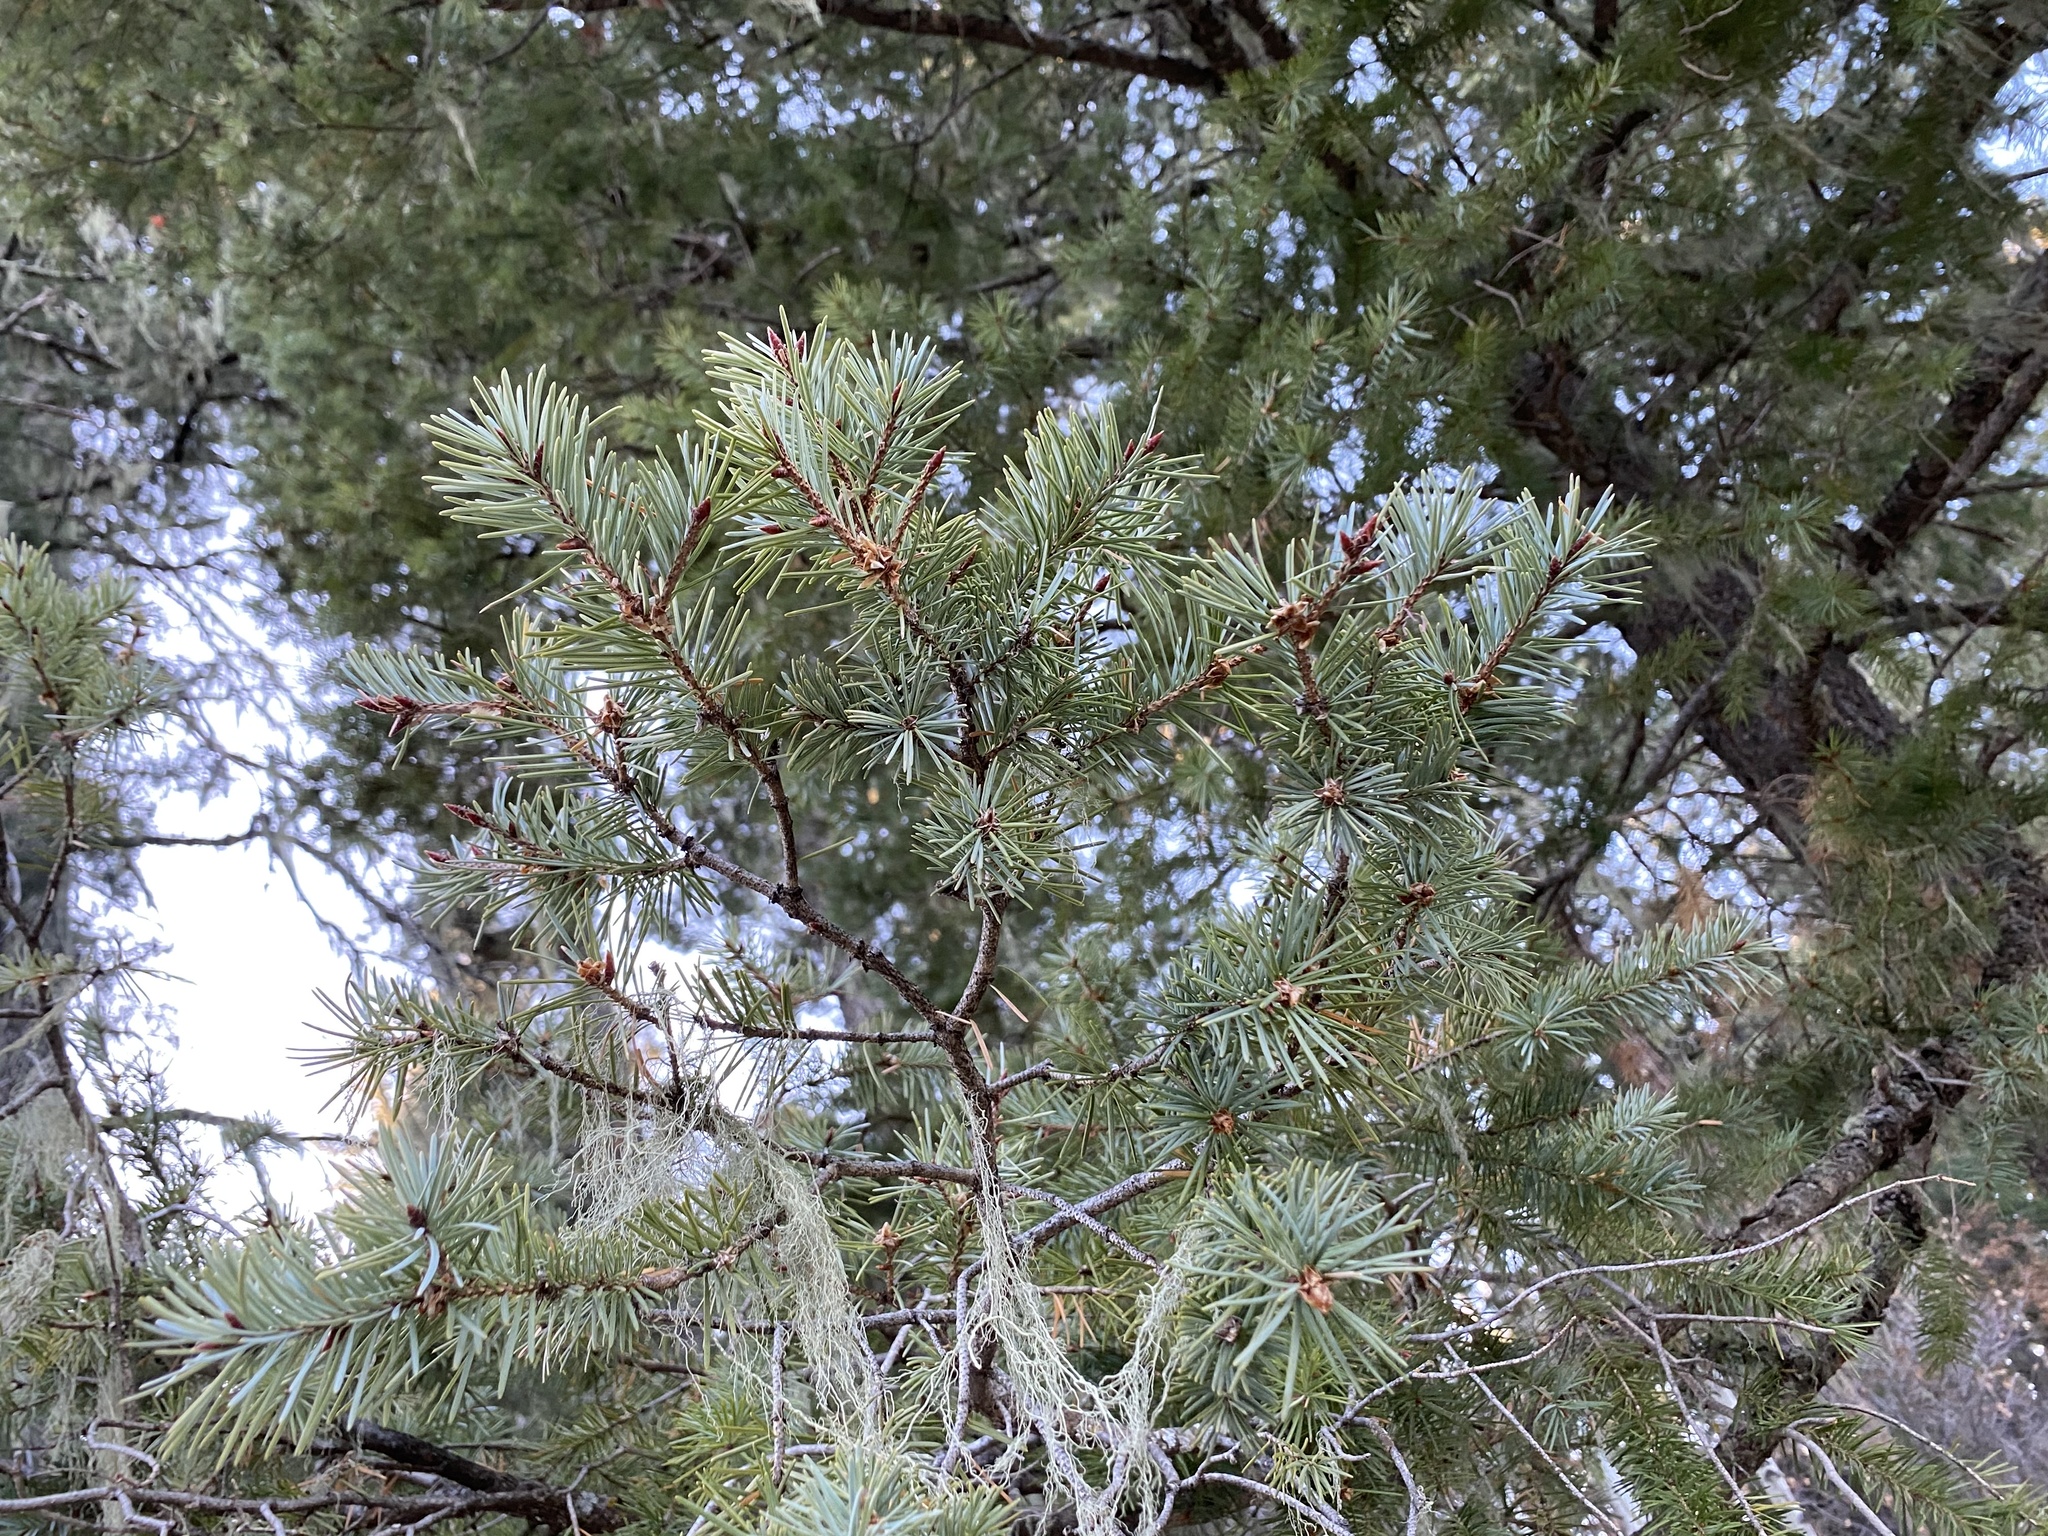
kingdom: Plantae
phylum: Tracheophyta
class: Pinopsida
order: Pinales
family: Pinaceae
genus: Pseudotsuga
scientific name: Pseudotsuga menziesii
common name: Douglas fir
